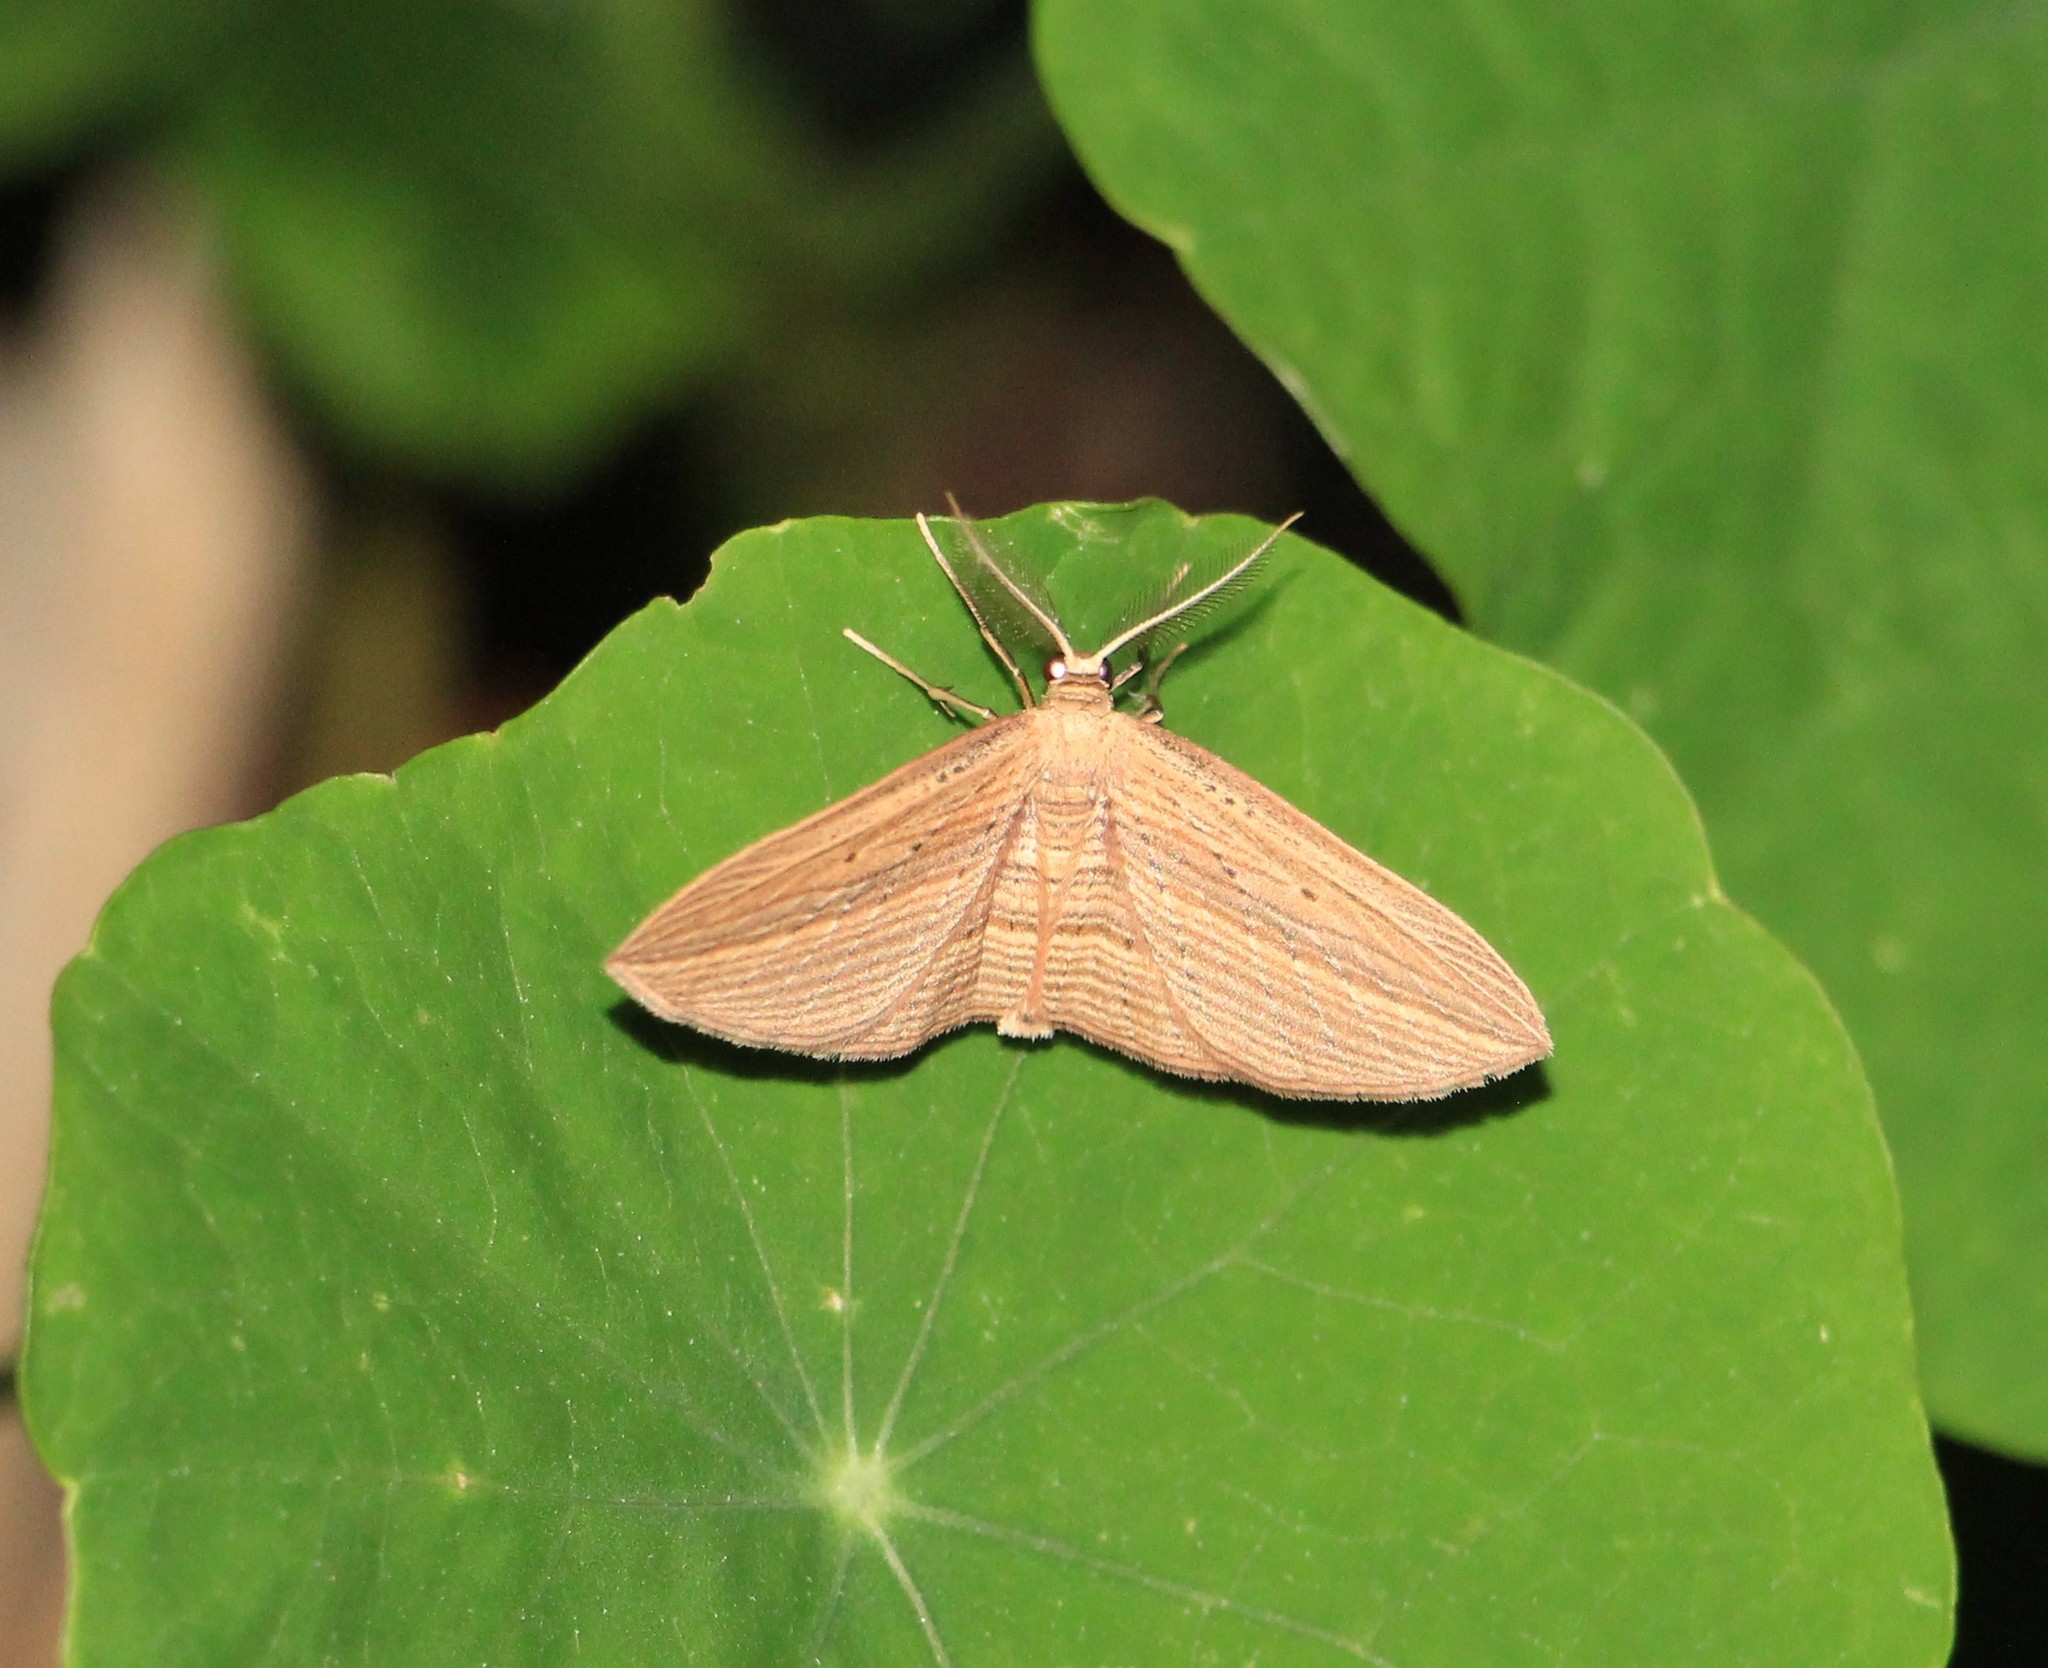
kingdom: Animalia
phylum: Arthropoda
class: Insecta
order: Lepidoptera
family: Geometridae
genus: Epiphryne
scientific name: Epiphryne verriculata
